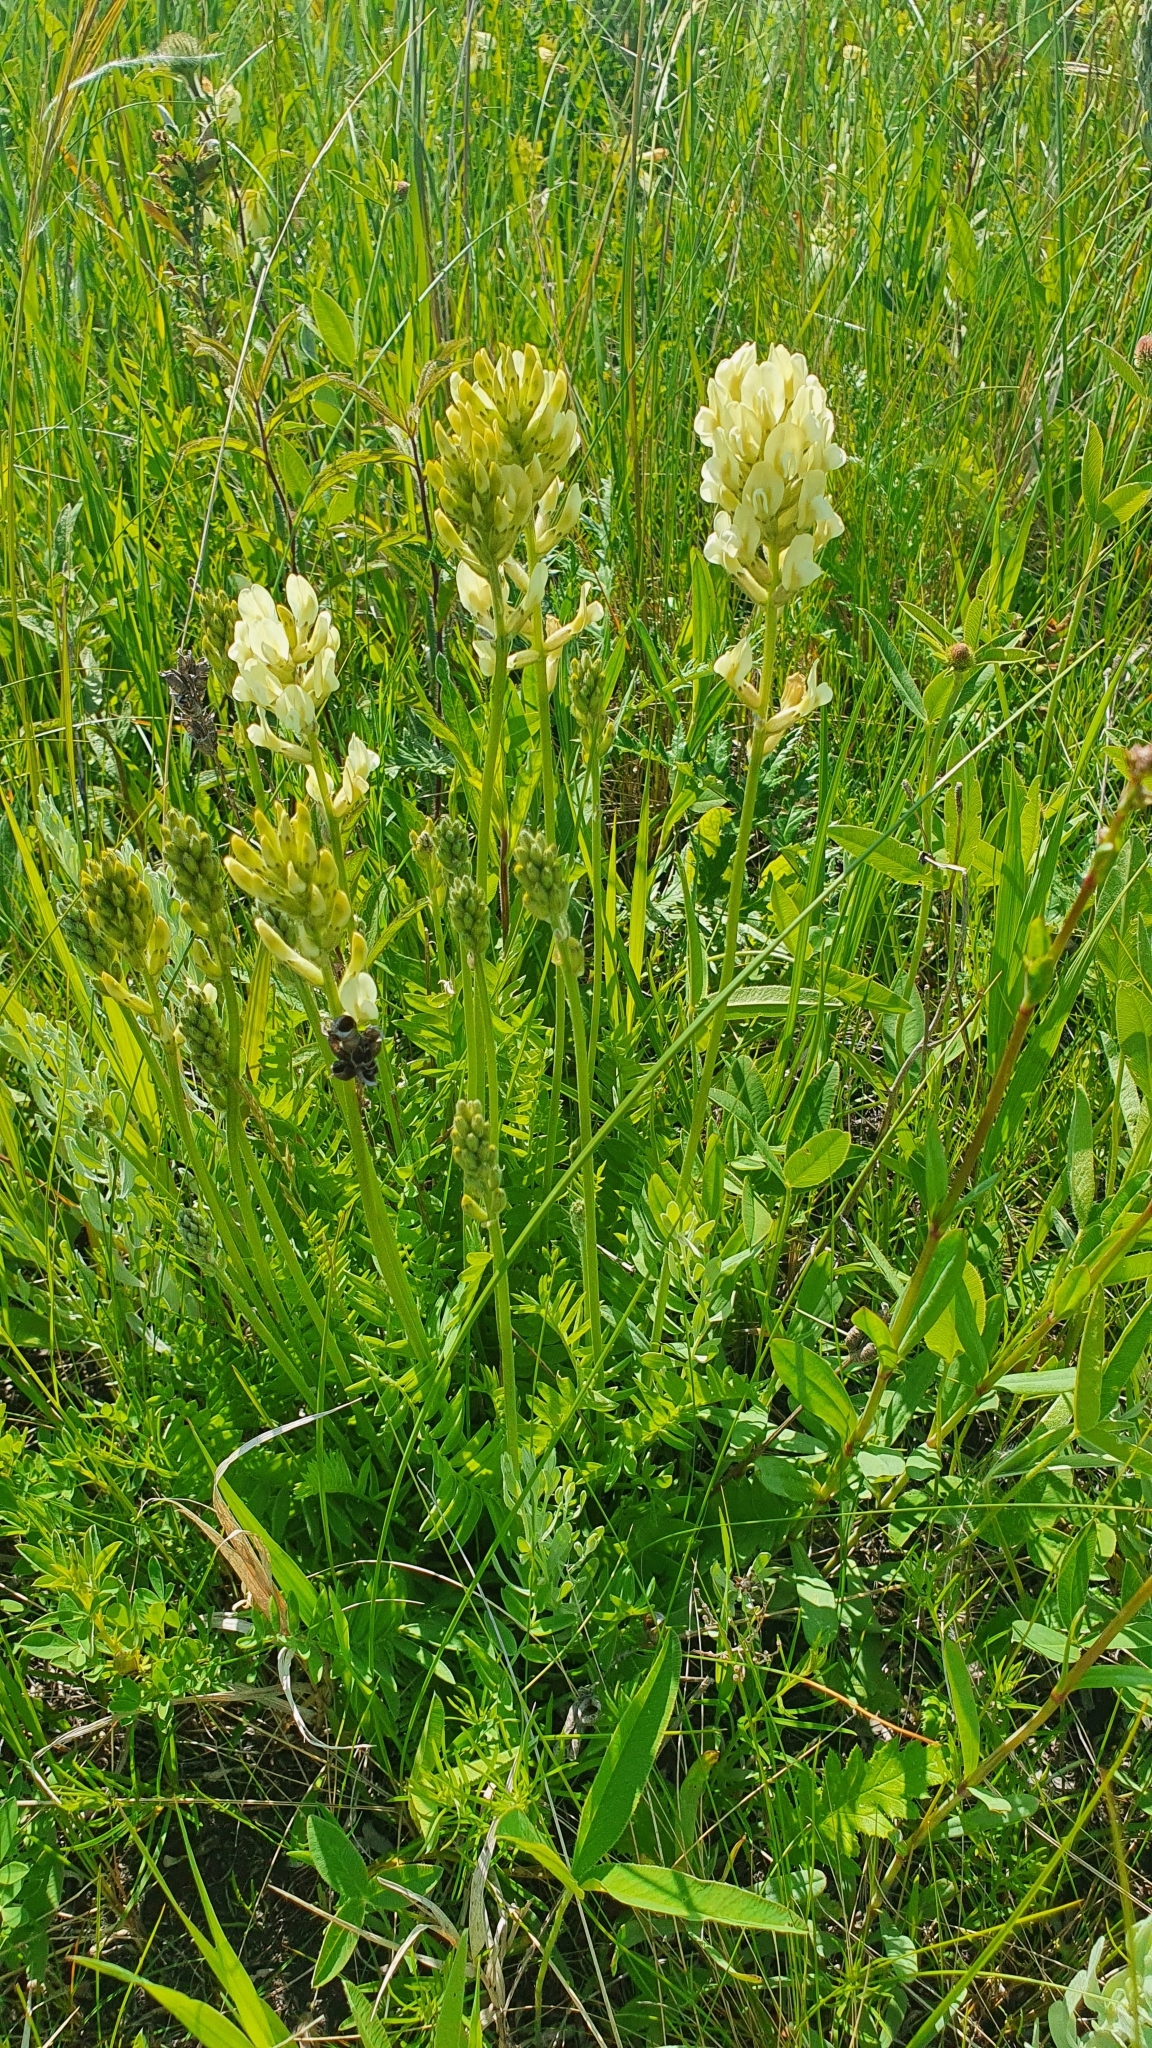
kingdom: Plantae
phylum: Tracheophyta
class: Magnoliopsida
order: Fabales
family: Fabaceae
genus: Oxytropis
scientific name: Oxytropis hippolyti
